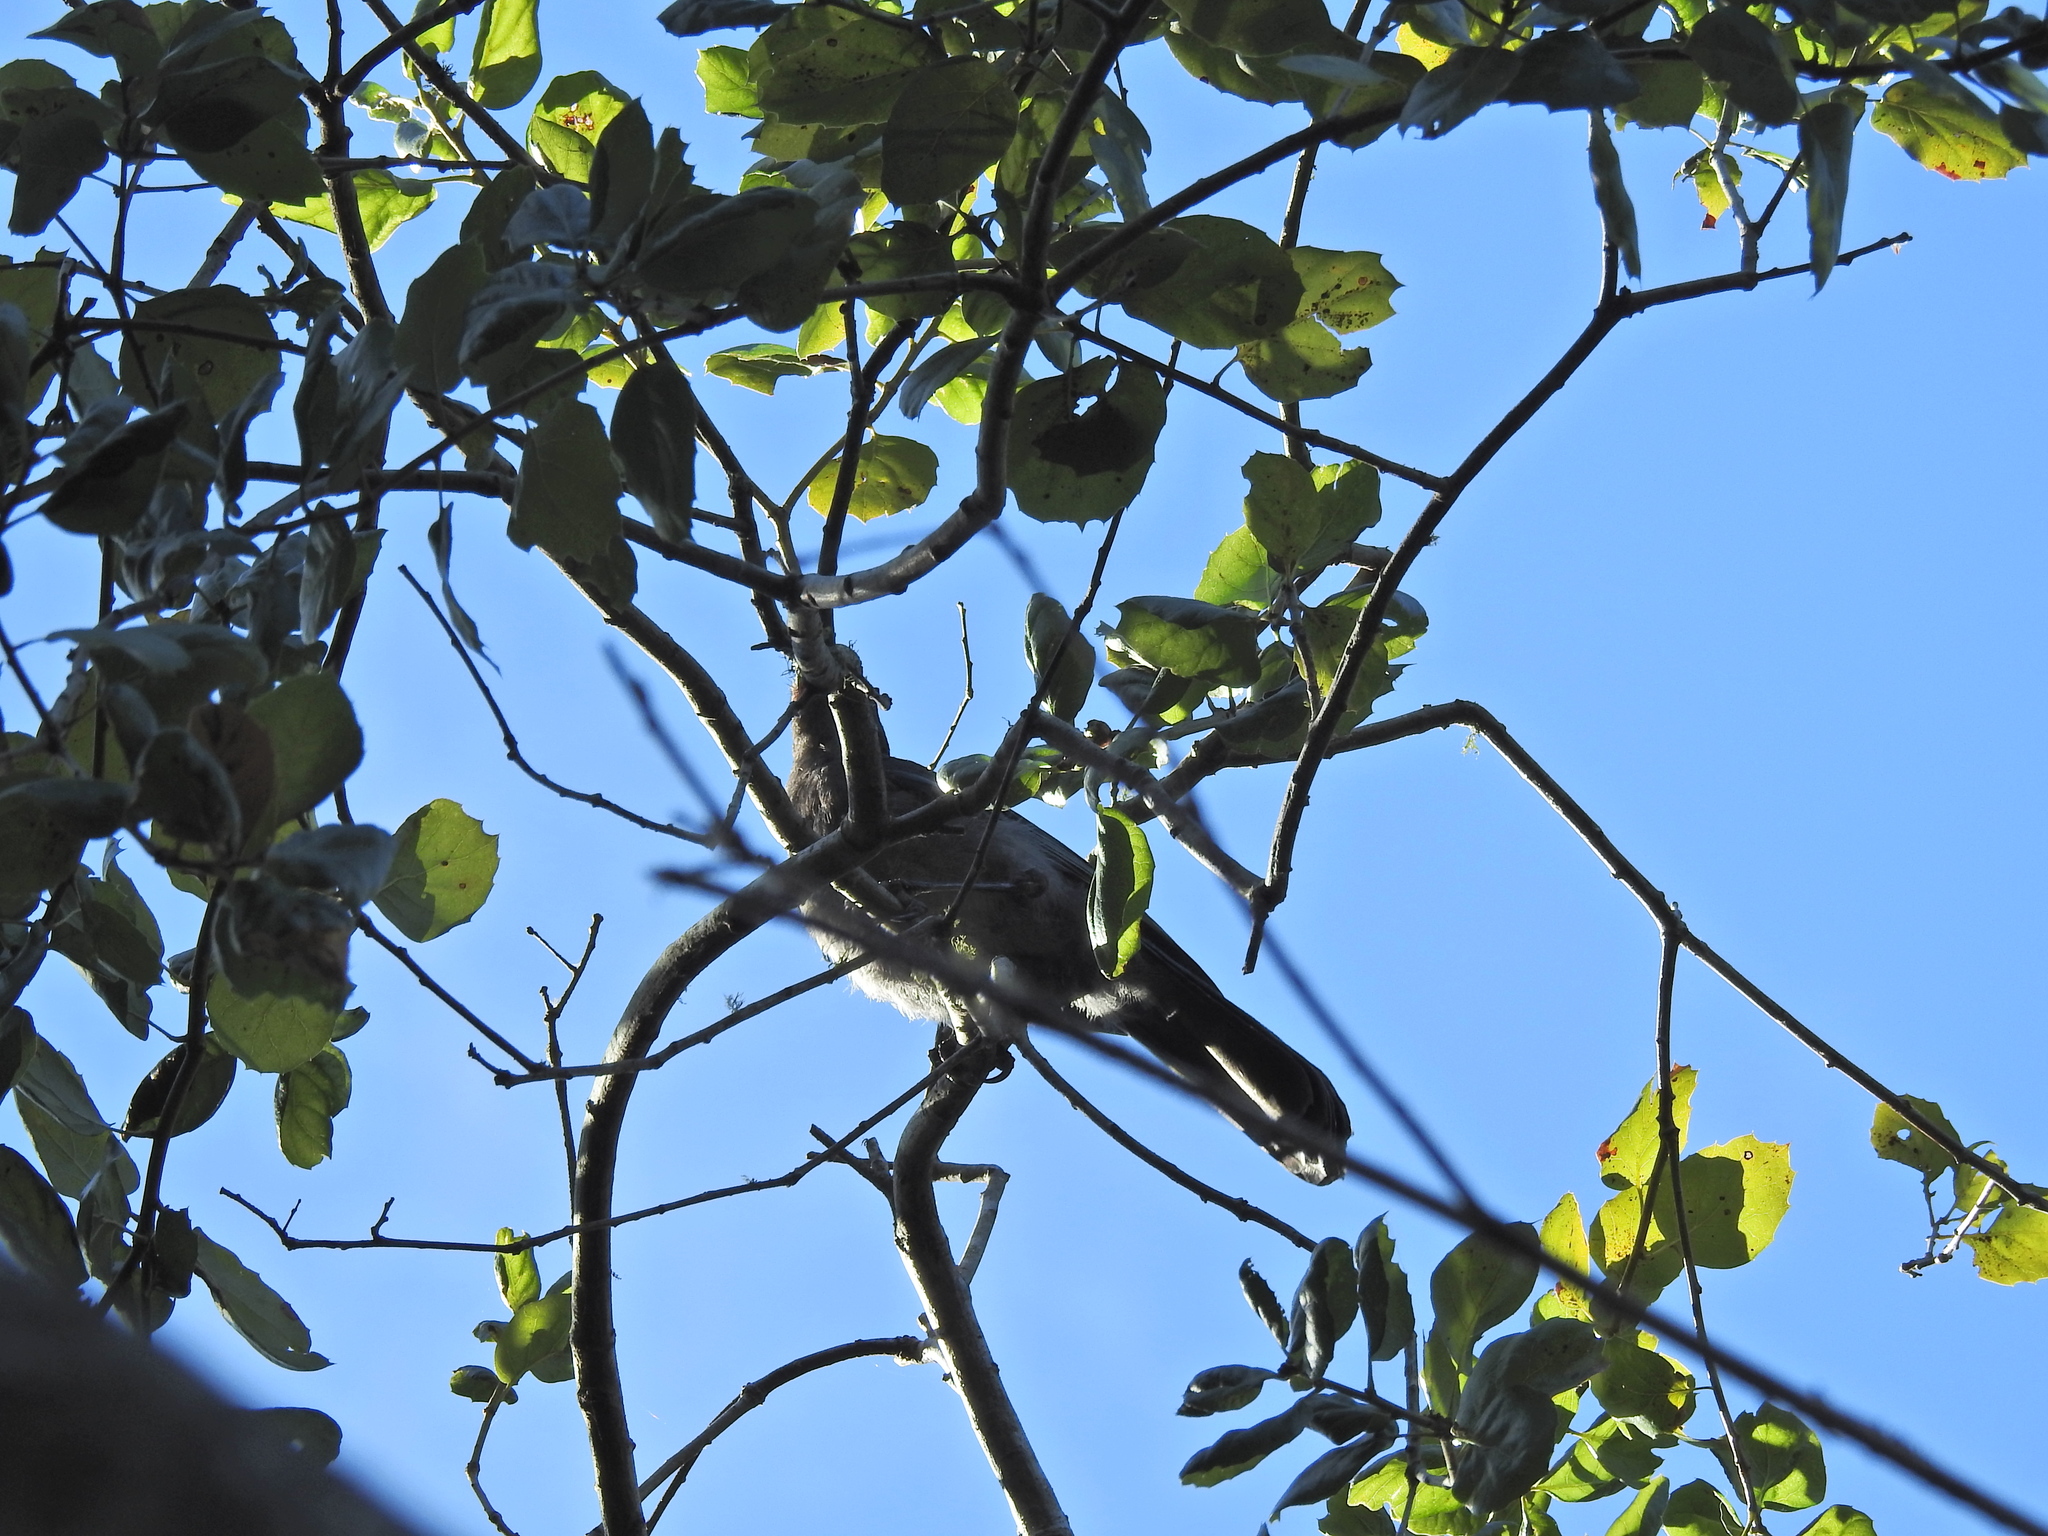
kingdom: Animalia
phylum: Chordata
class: Aves
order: Passeriformes
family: Corvidae
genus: Aphelocoma
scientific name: Aphelocoma californica
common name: California scrub-jay
